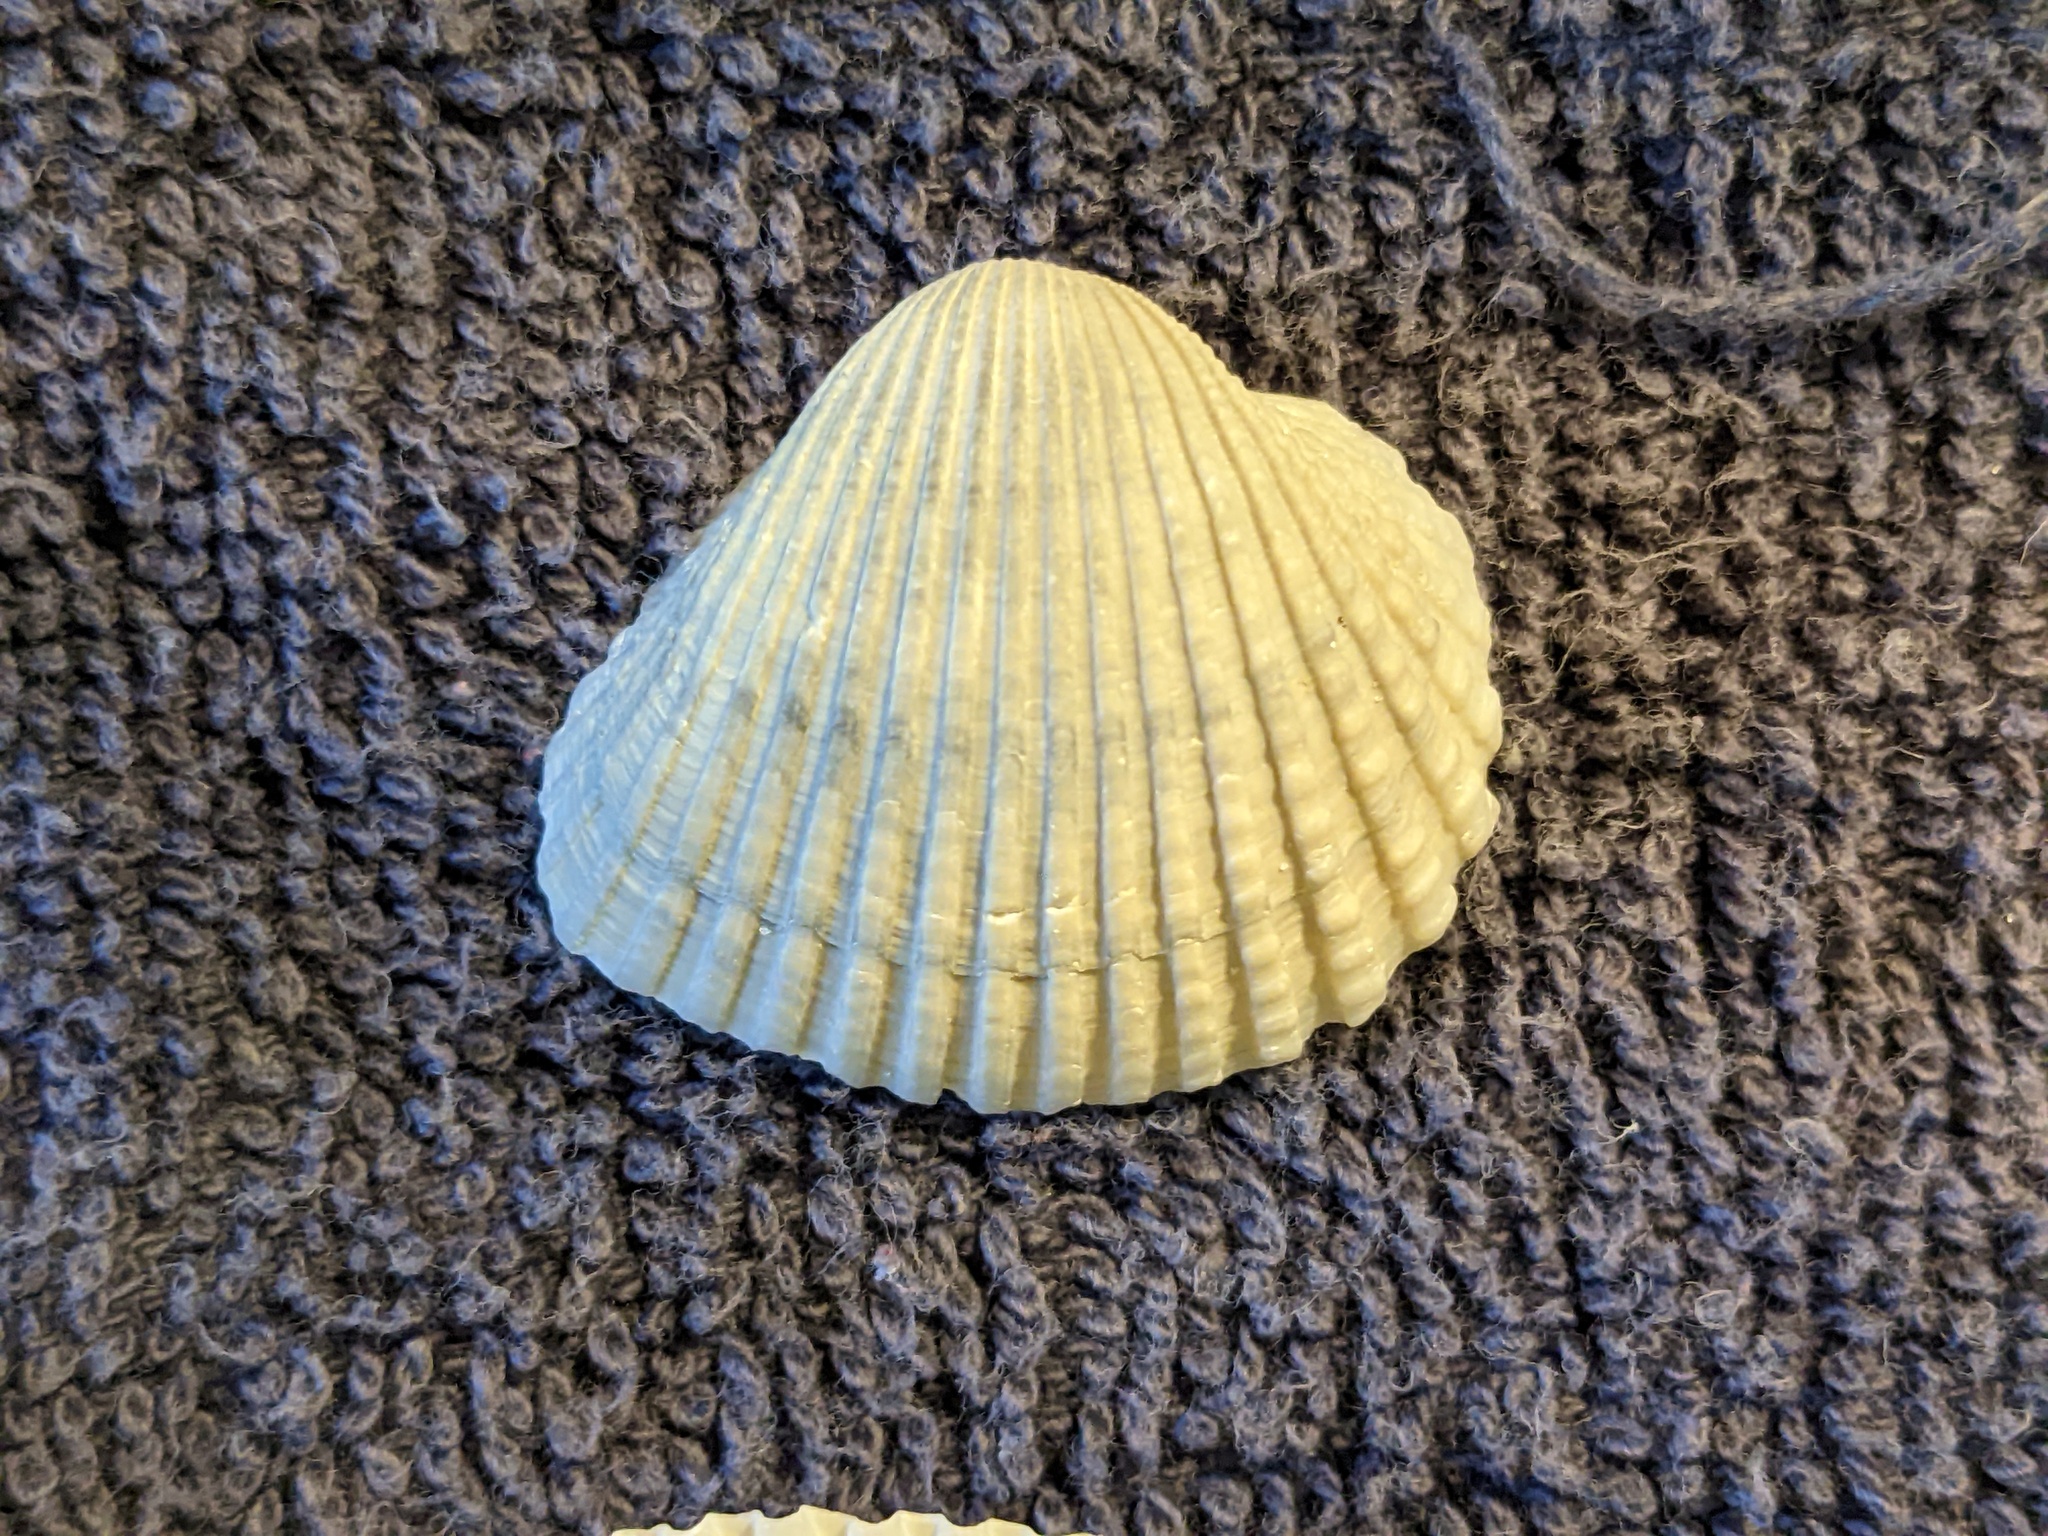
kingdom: Animalia
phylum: Mollusca
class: Bivalvia
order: Arcida
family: Arcidae
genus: Anadara
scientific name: Anadara brasiliana
